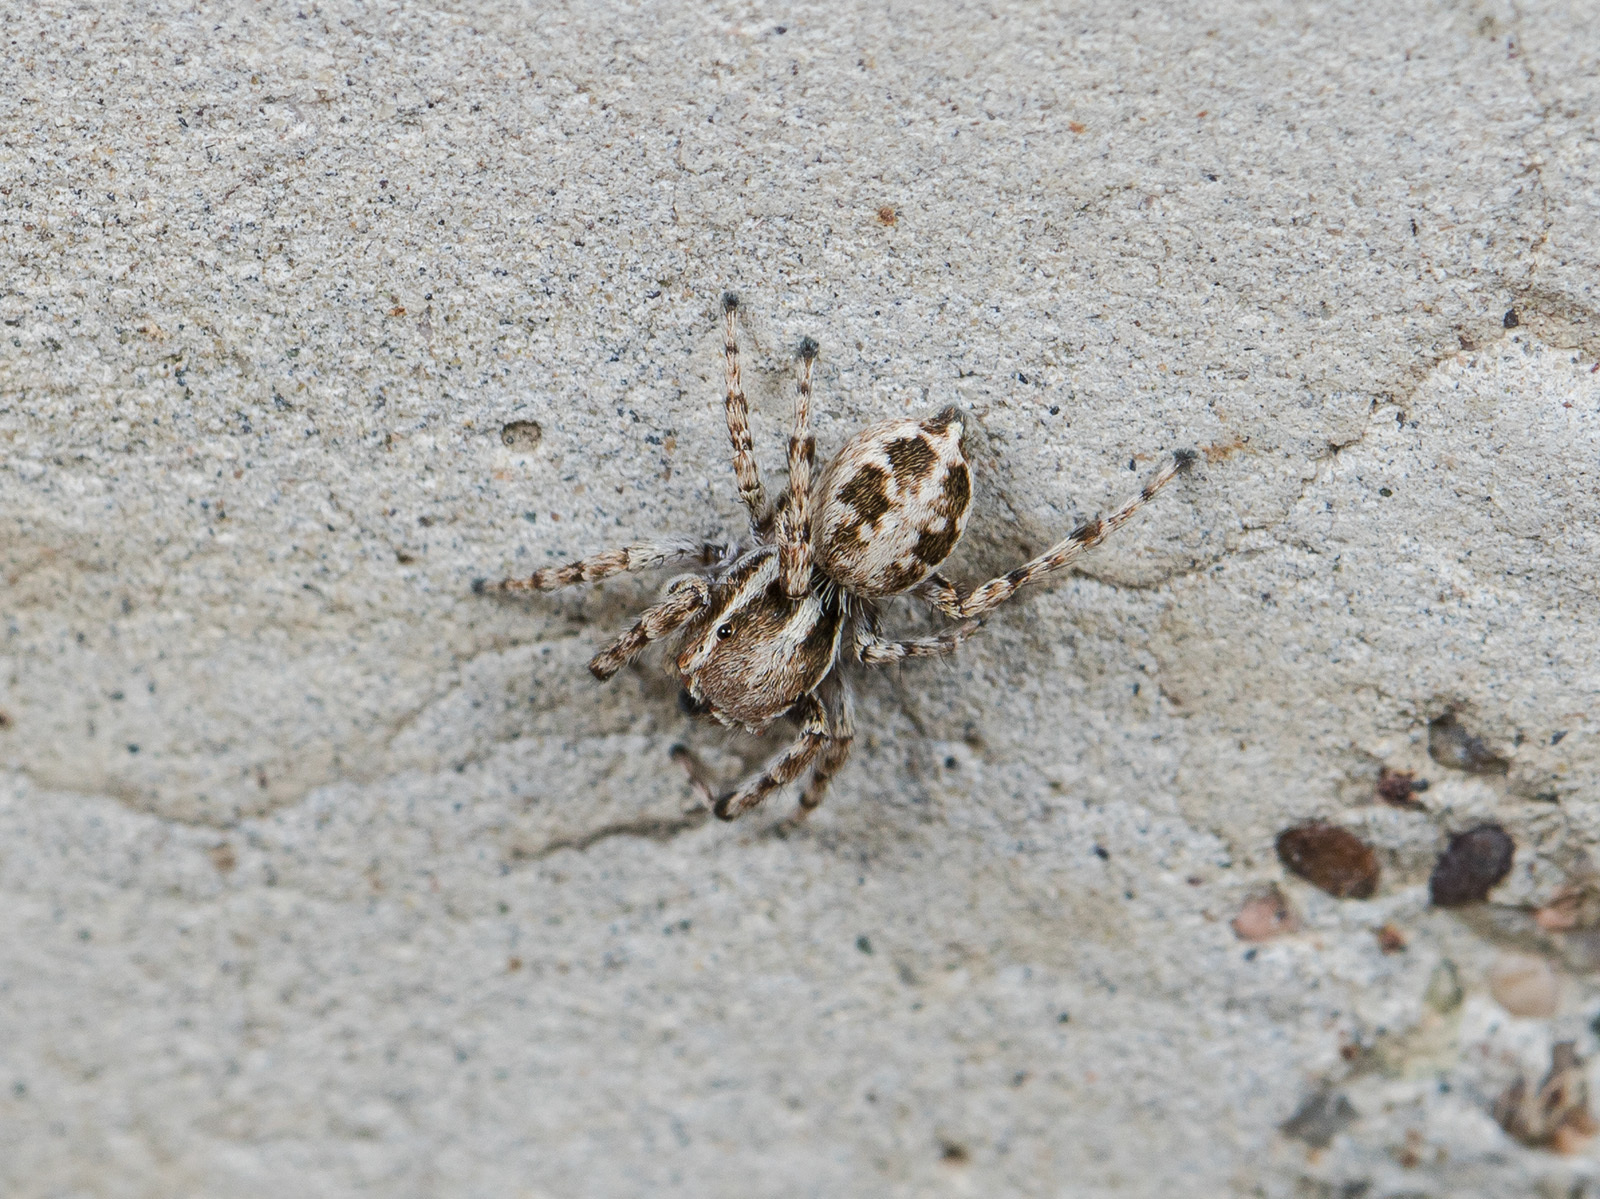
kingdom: Animalia
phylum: Arthropoda
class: Arachnida
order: Araneae
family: Salticidae
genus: Attulus
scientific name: Attulus avocator
